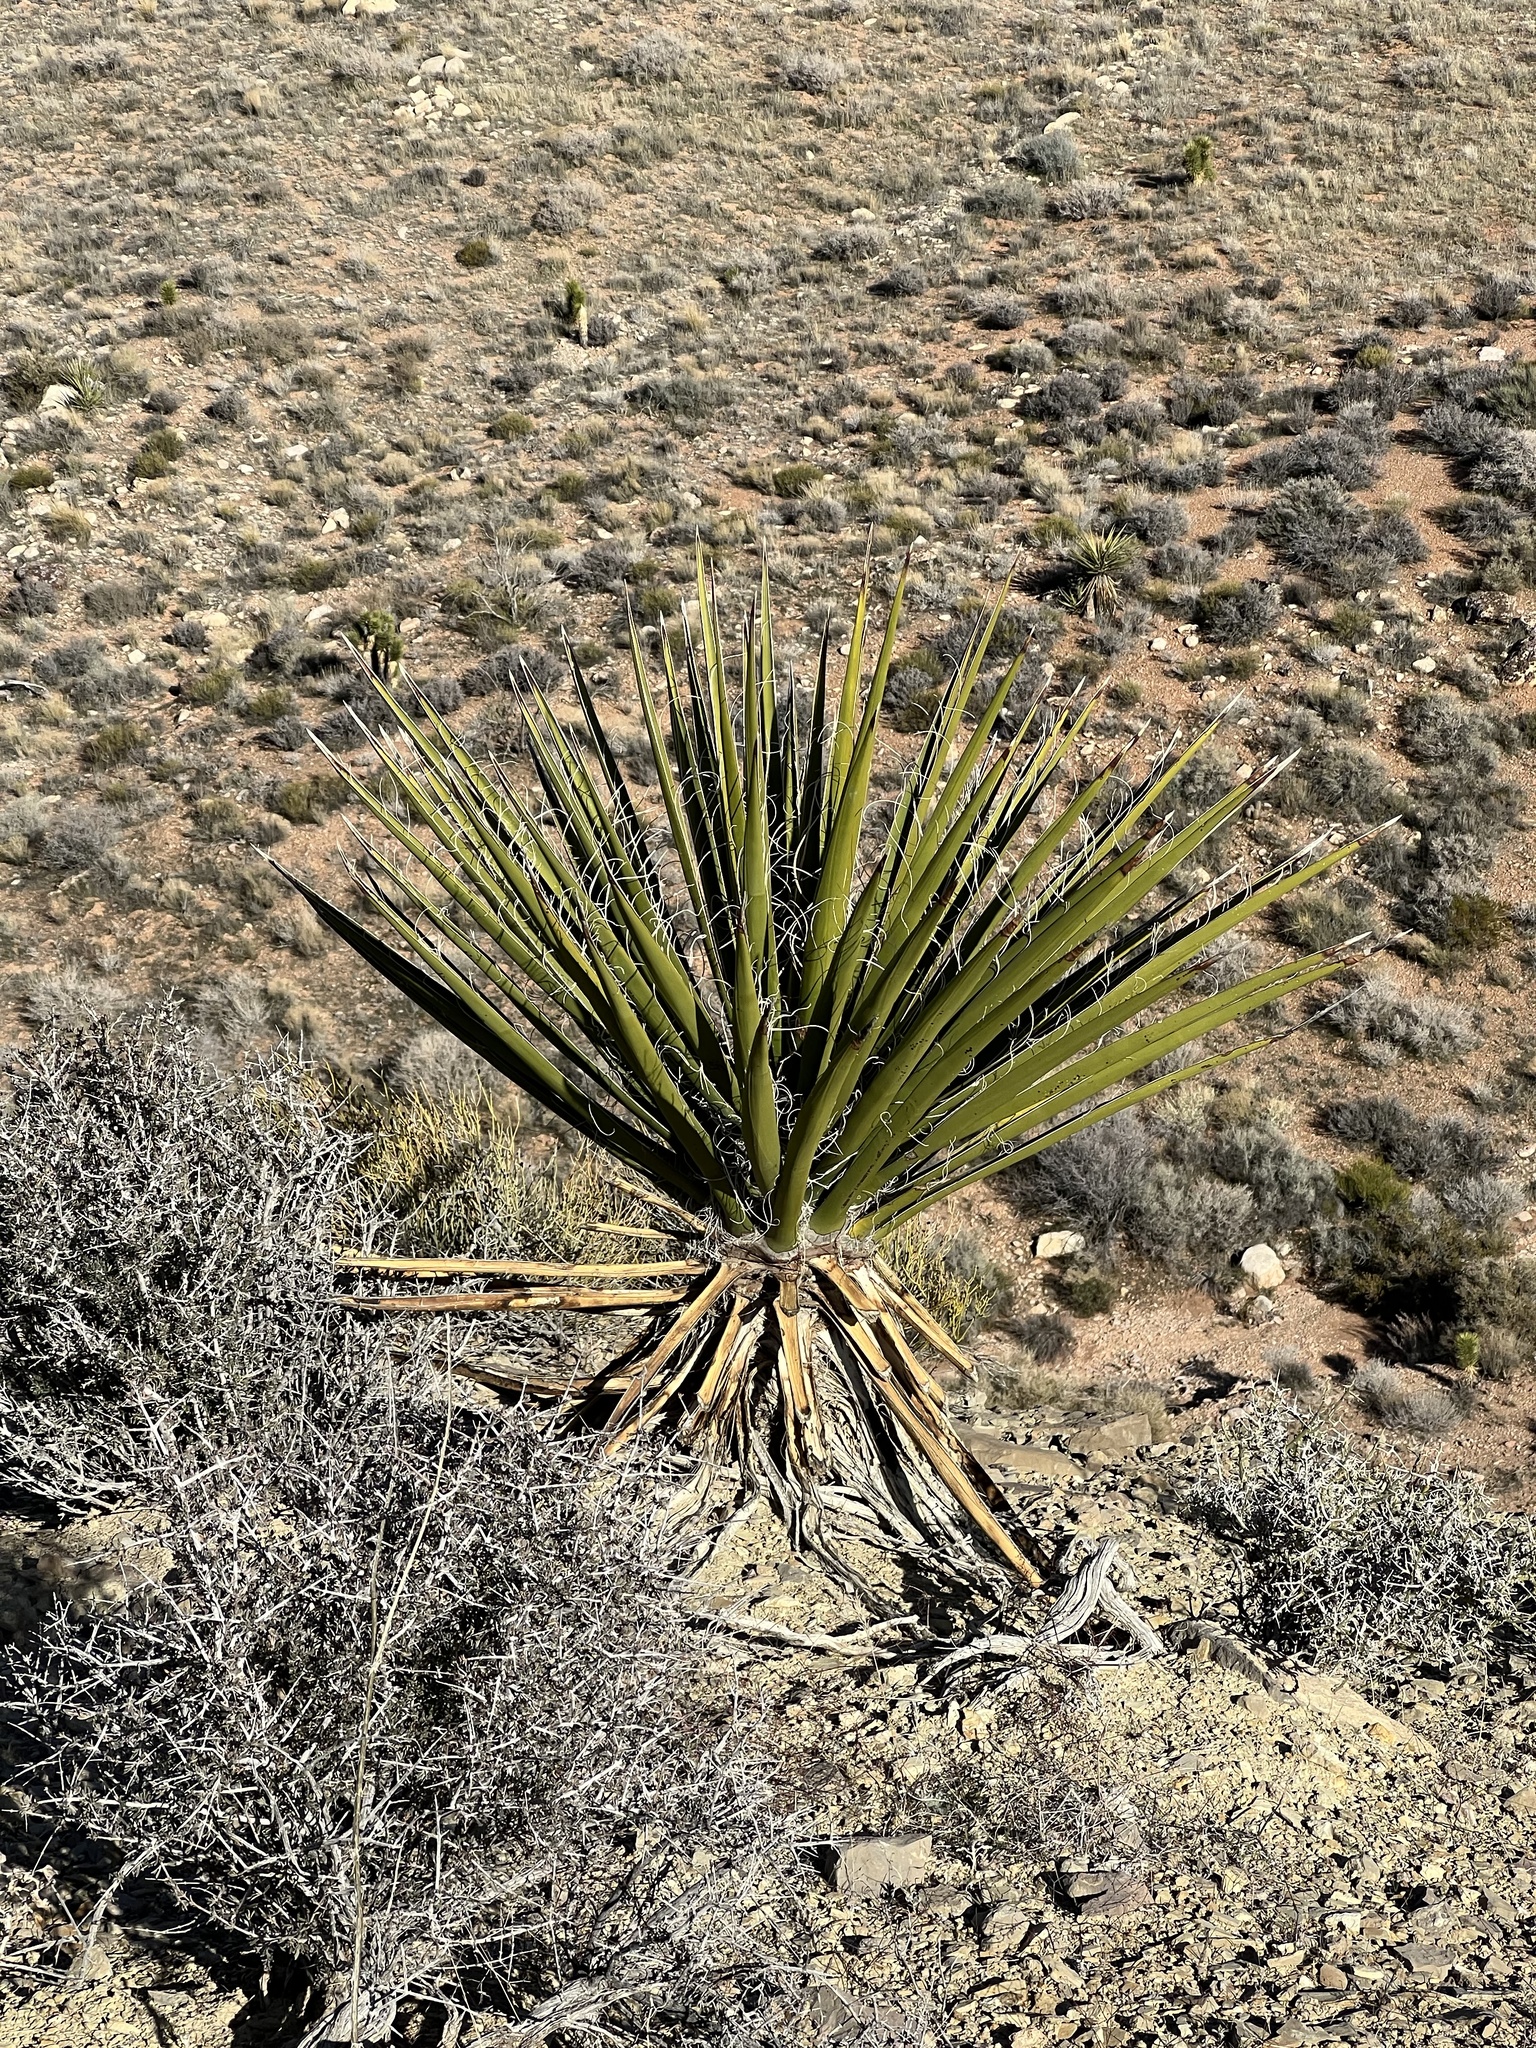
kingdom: Plantae
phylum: Tracheophyta
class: Liliopsida
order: Asparagales
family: Asparagaceae
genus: Yucca
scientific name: Yucca schidigera
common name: Mojave yucca
